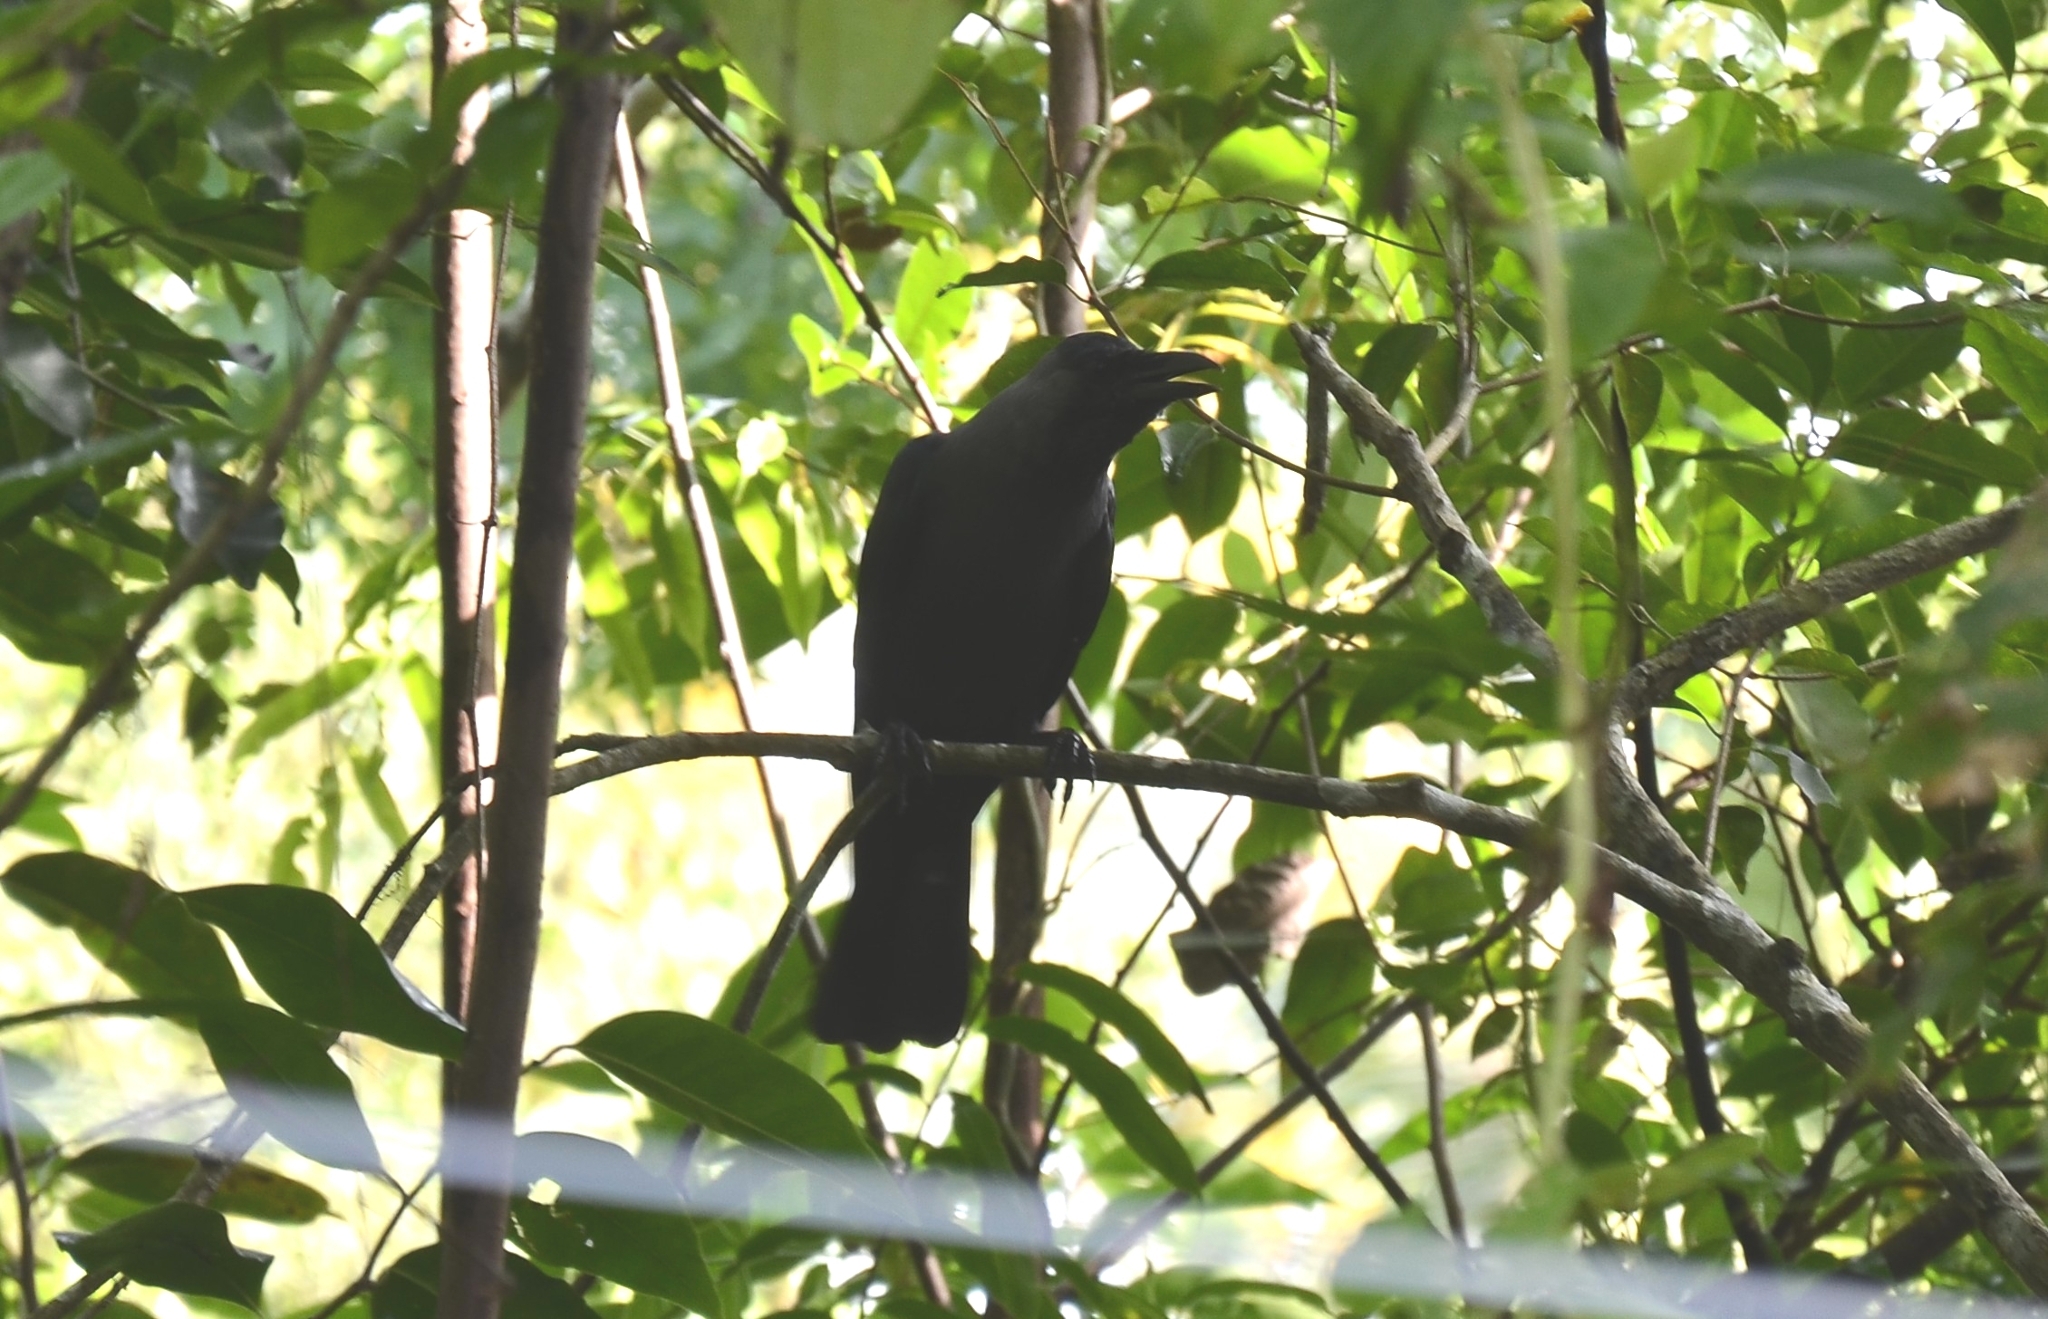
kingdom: Animalia
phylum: Chordata
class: Aves
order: Passeriformes
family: Corvidae
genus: Corvus
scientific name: Corvus splendens
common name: House crow
